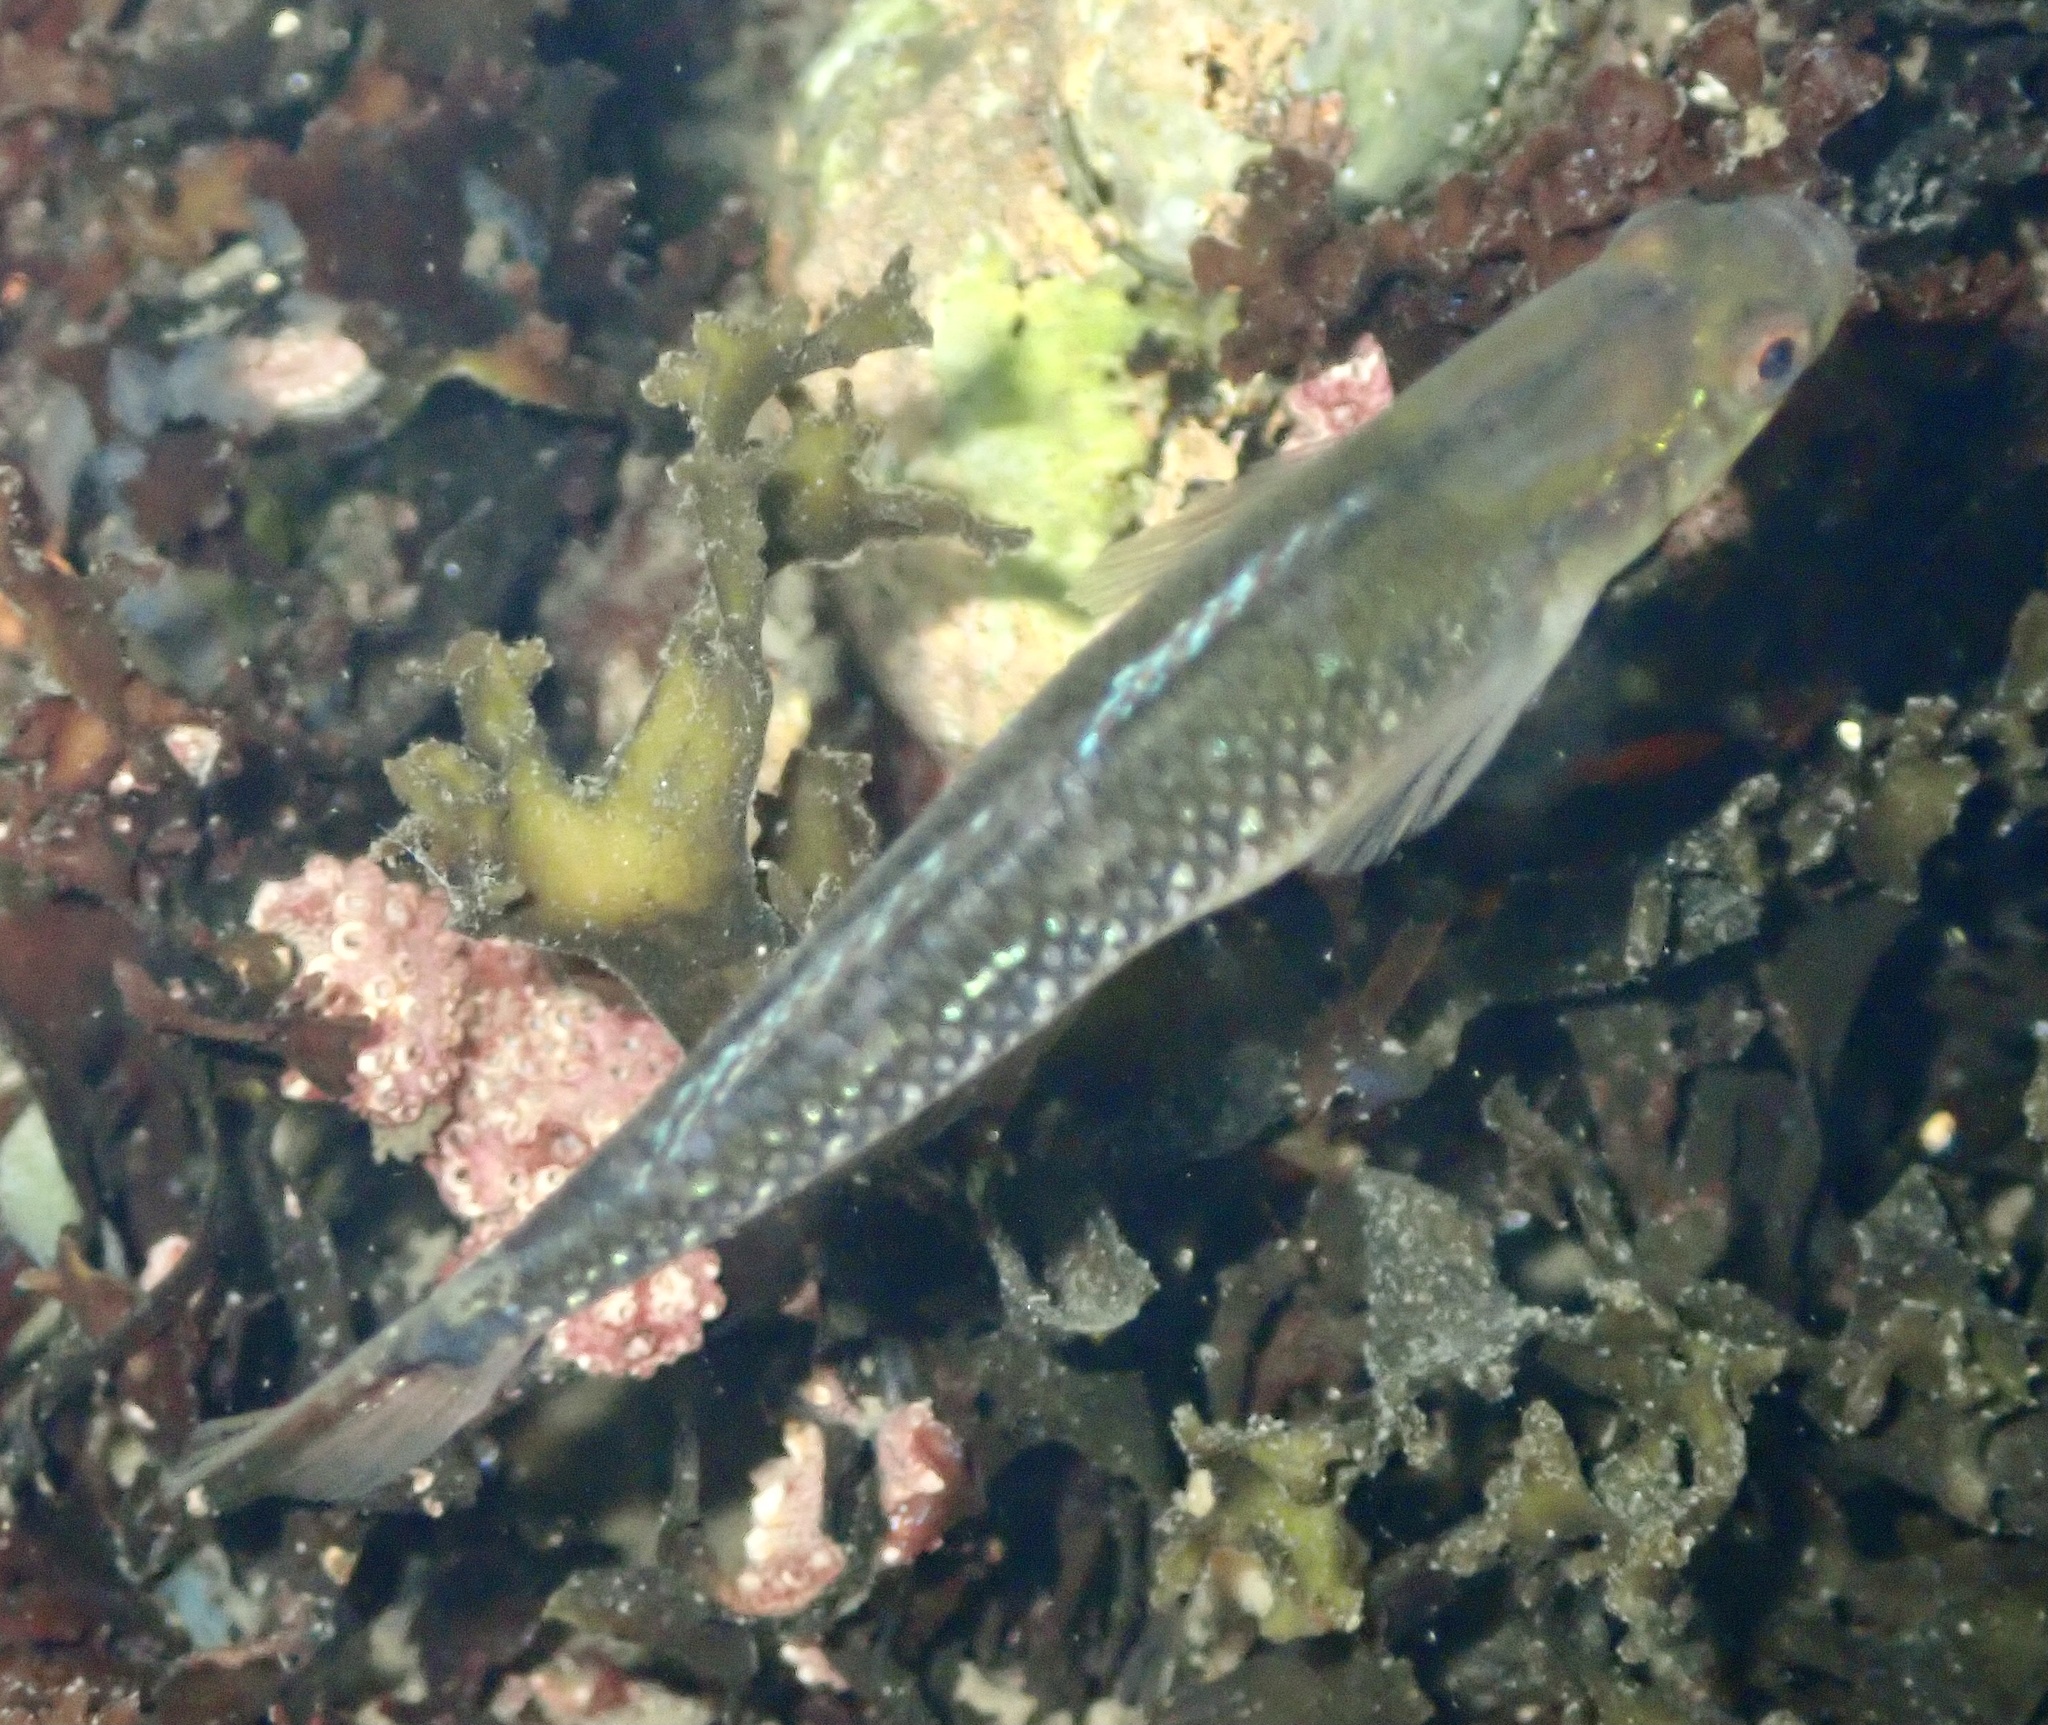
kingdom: Animalia
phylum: Chordata
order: Perciformes
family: Gobiidae
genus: Gobiusculus
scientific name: Gobiusculus flavescens
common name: Two-spotted goby
